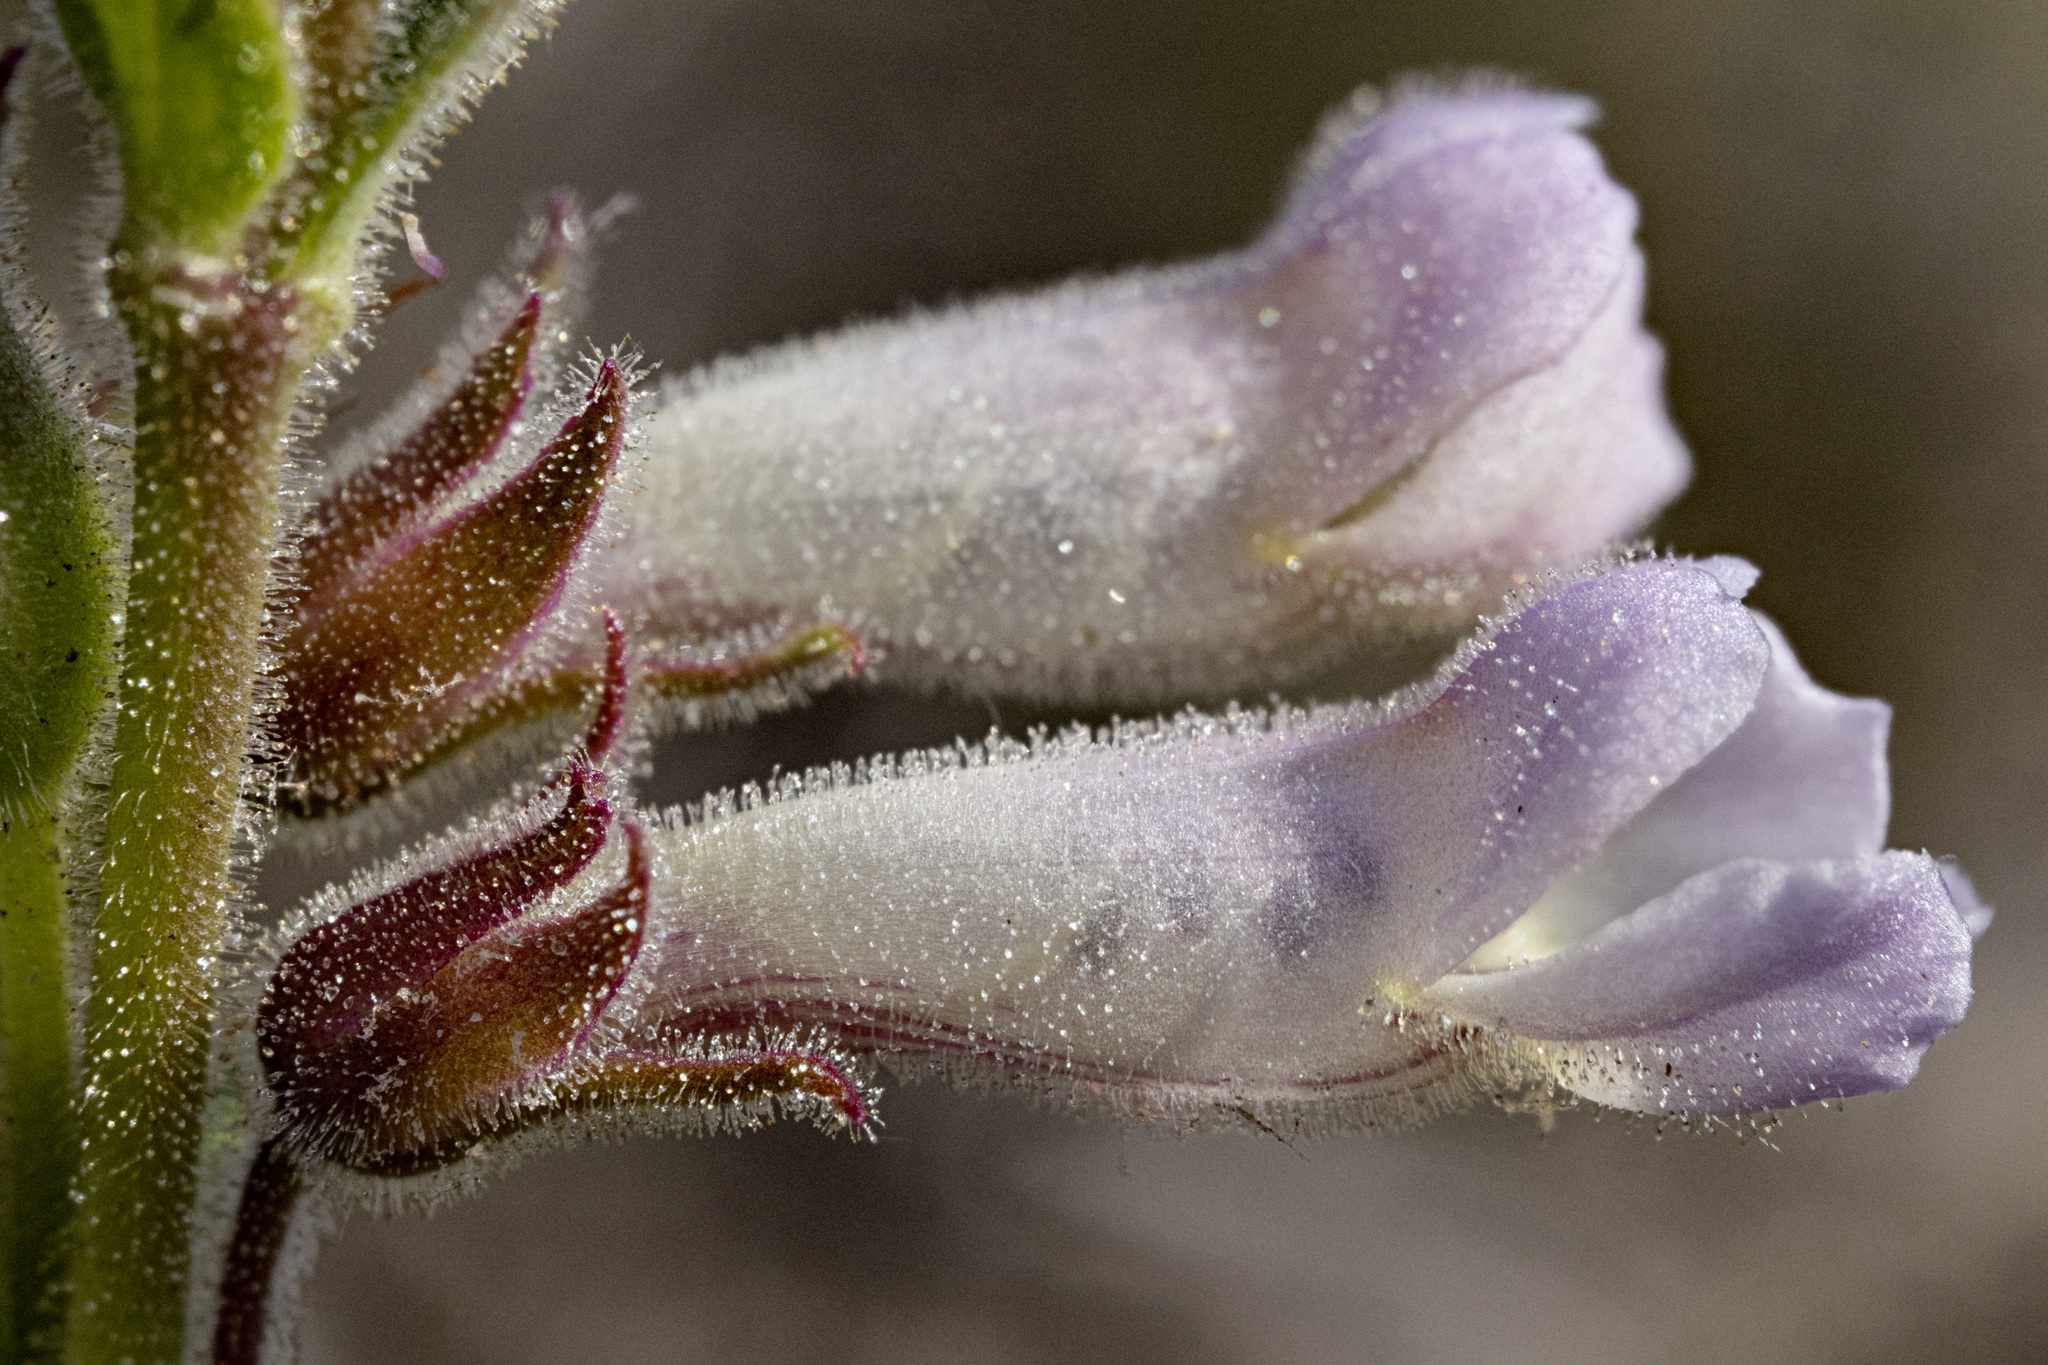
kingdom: Plantae
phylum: Tracheophyta
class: Magnoliopsida
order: Lamiales
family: Plantaginaceae
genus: Penstemon
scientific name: Penstemon albidus
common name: White beardtongue
